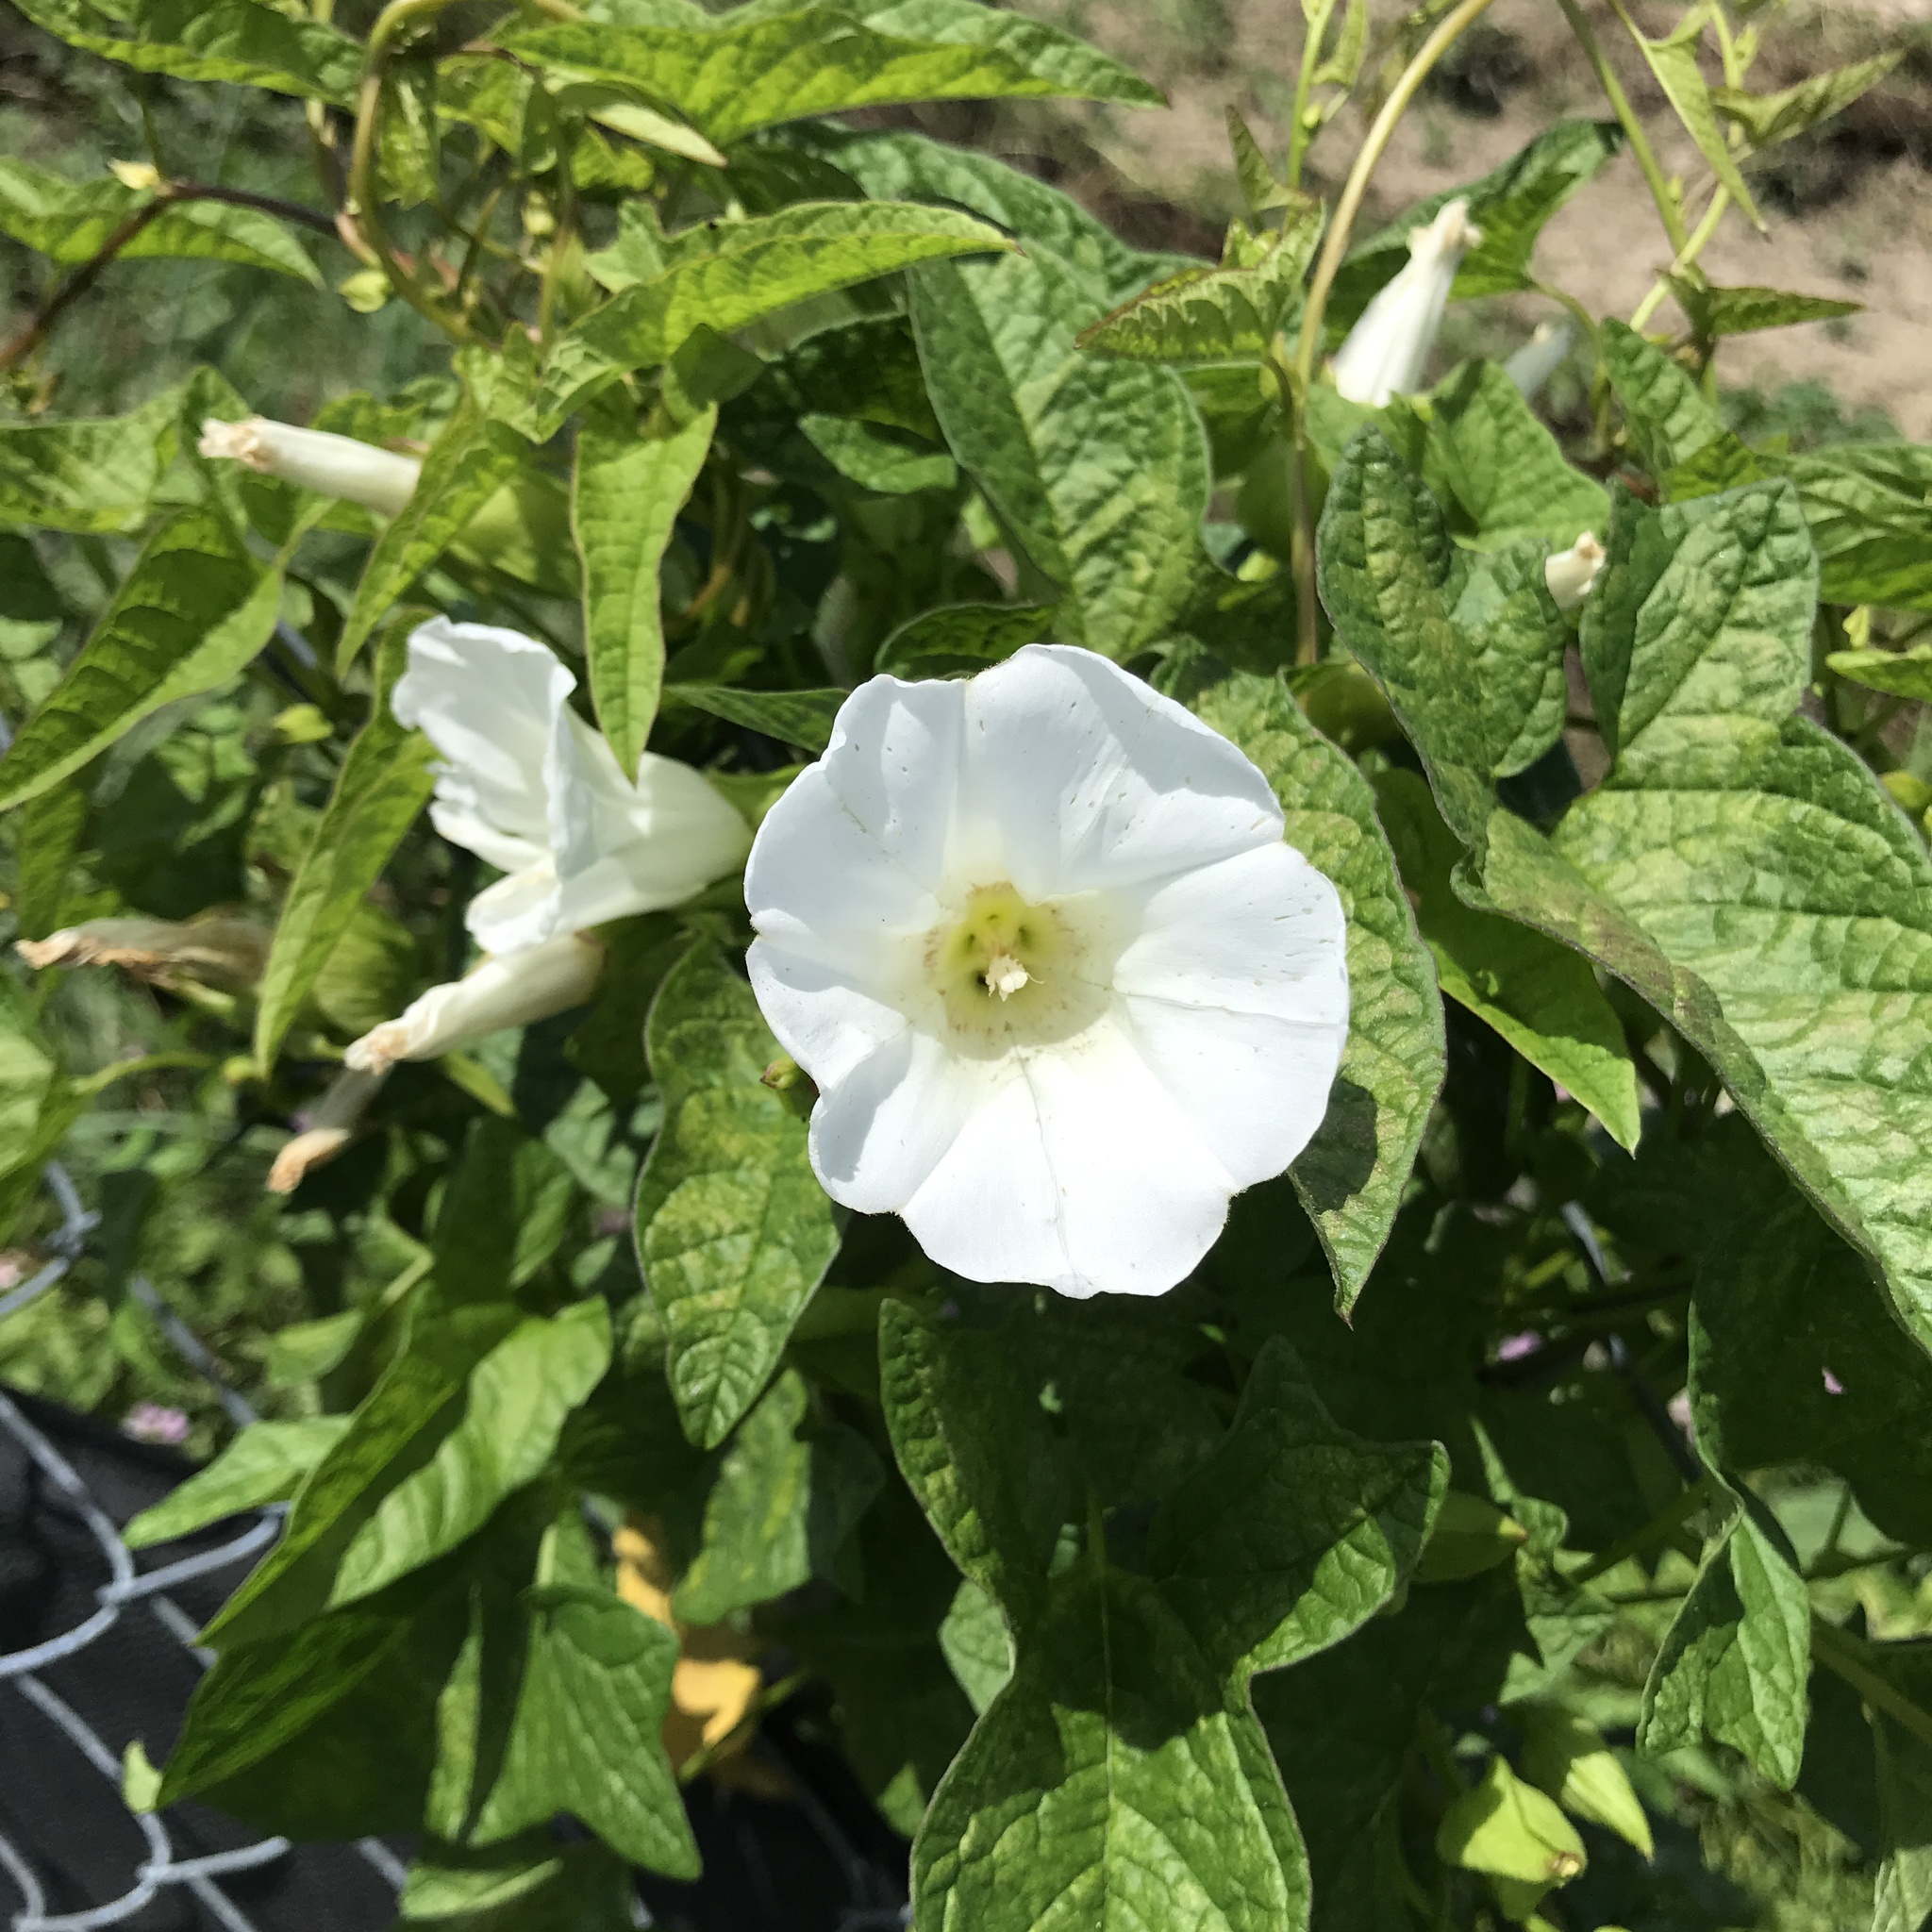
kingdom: Plantae
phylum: Tracheophyta
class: Magnoliopsida
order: Solanales
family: Convolvulaceae
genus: Calystegia
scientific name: Calystegia sepium
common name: Hedge bindweed
